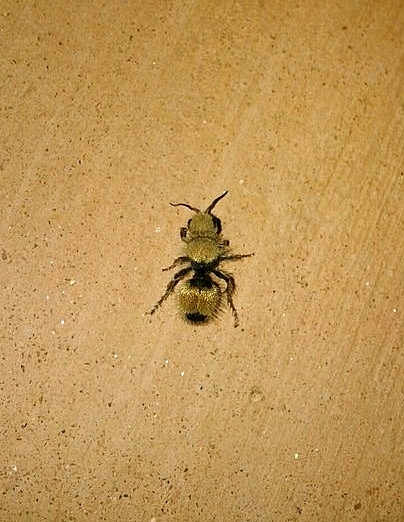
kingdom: Animalia
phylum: Arthropoda
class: Insecta
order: Hymenoptera
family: Mutillidae
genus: Dasymutilla
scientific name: Dasymutilla foxi
